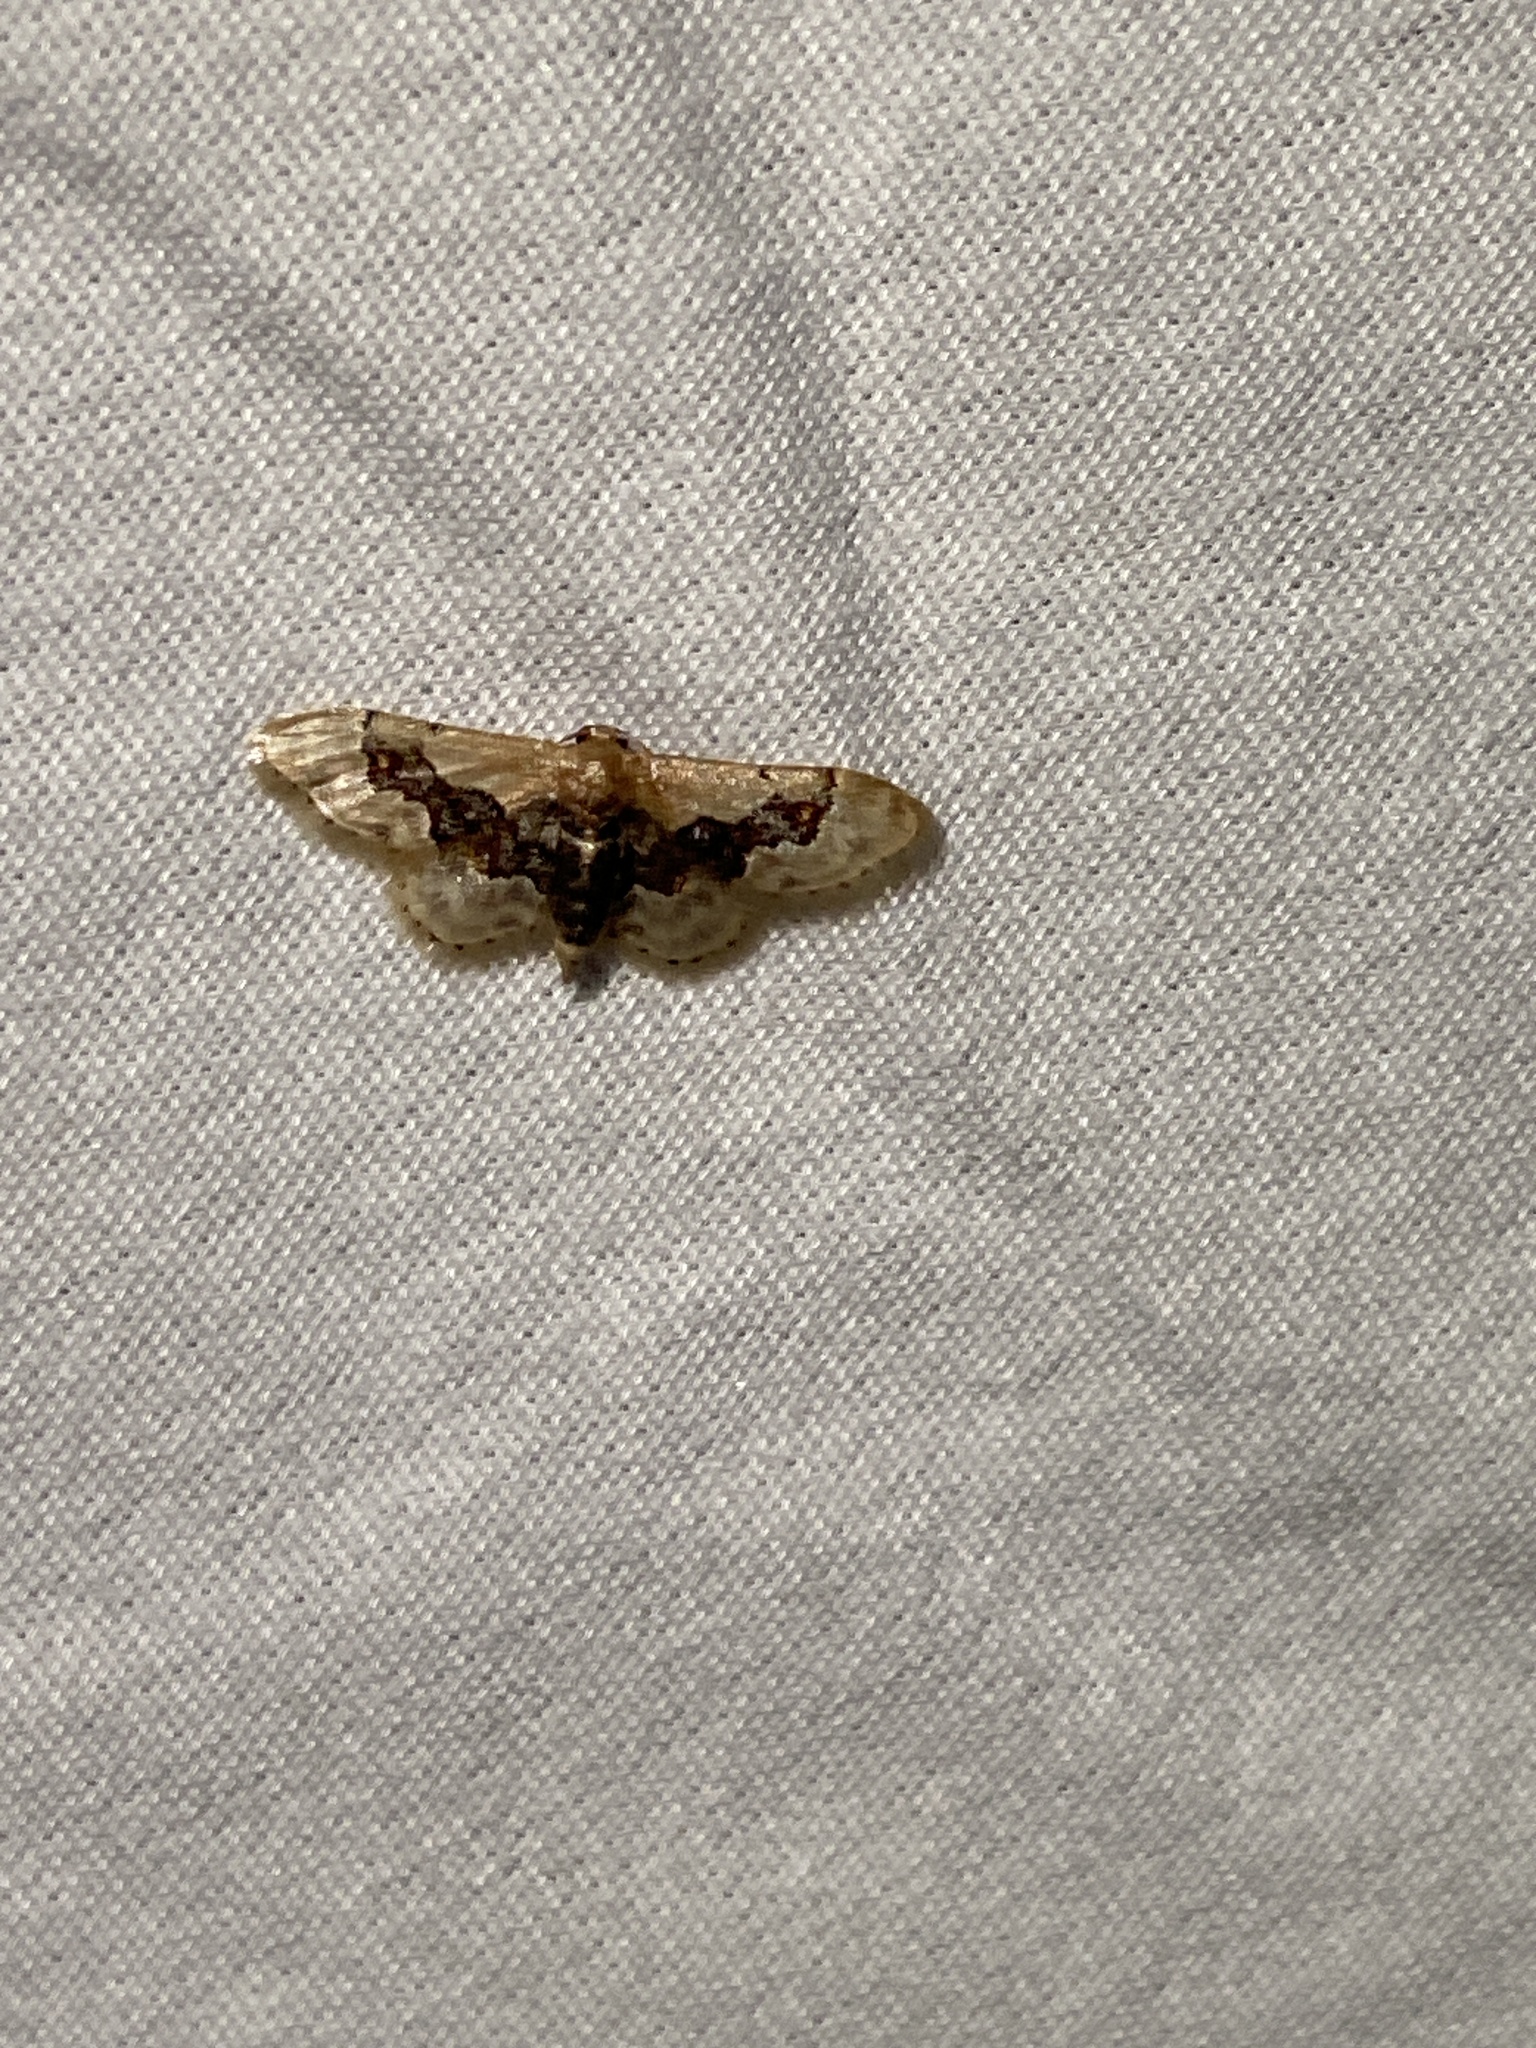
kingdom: Animalia
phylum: Arthropoda
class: Insecta
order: Lepidoptera
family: Geometridae
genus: Idaea
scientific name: Idaea gemmata
